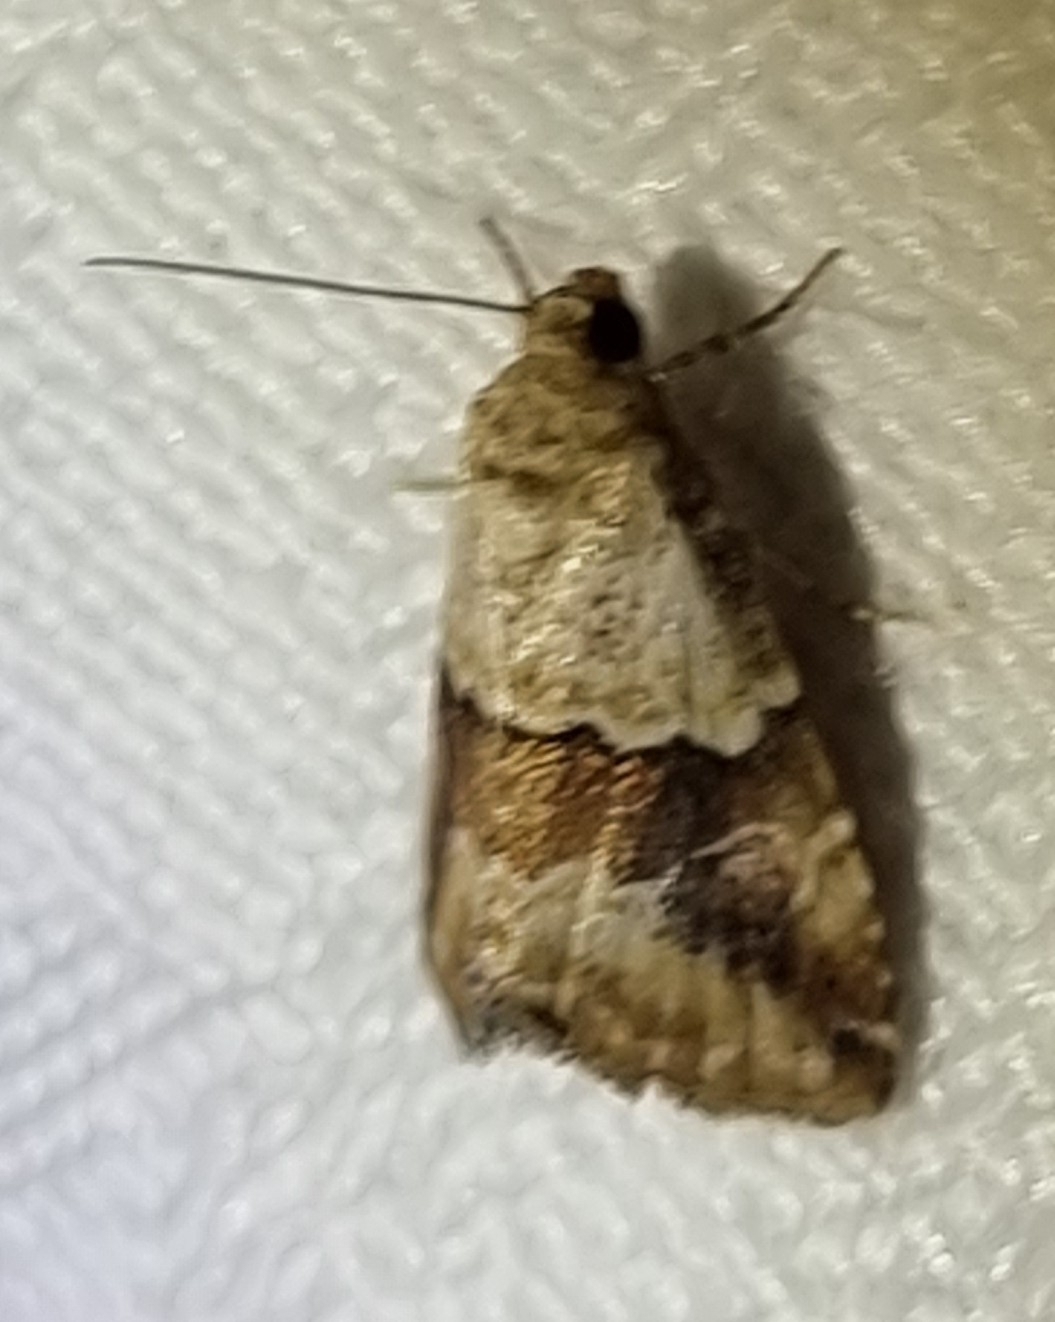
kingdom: Animalia
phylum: Arthropoda
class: Insecta
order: Lepidoptera
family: Noctuidae
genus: Maliattha
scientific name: Maliattha amorpha
